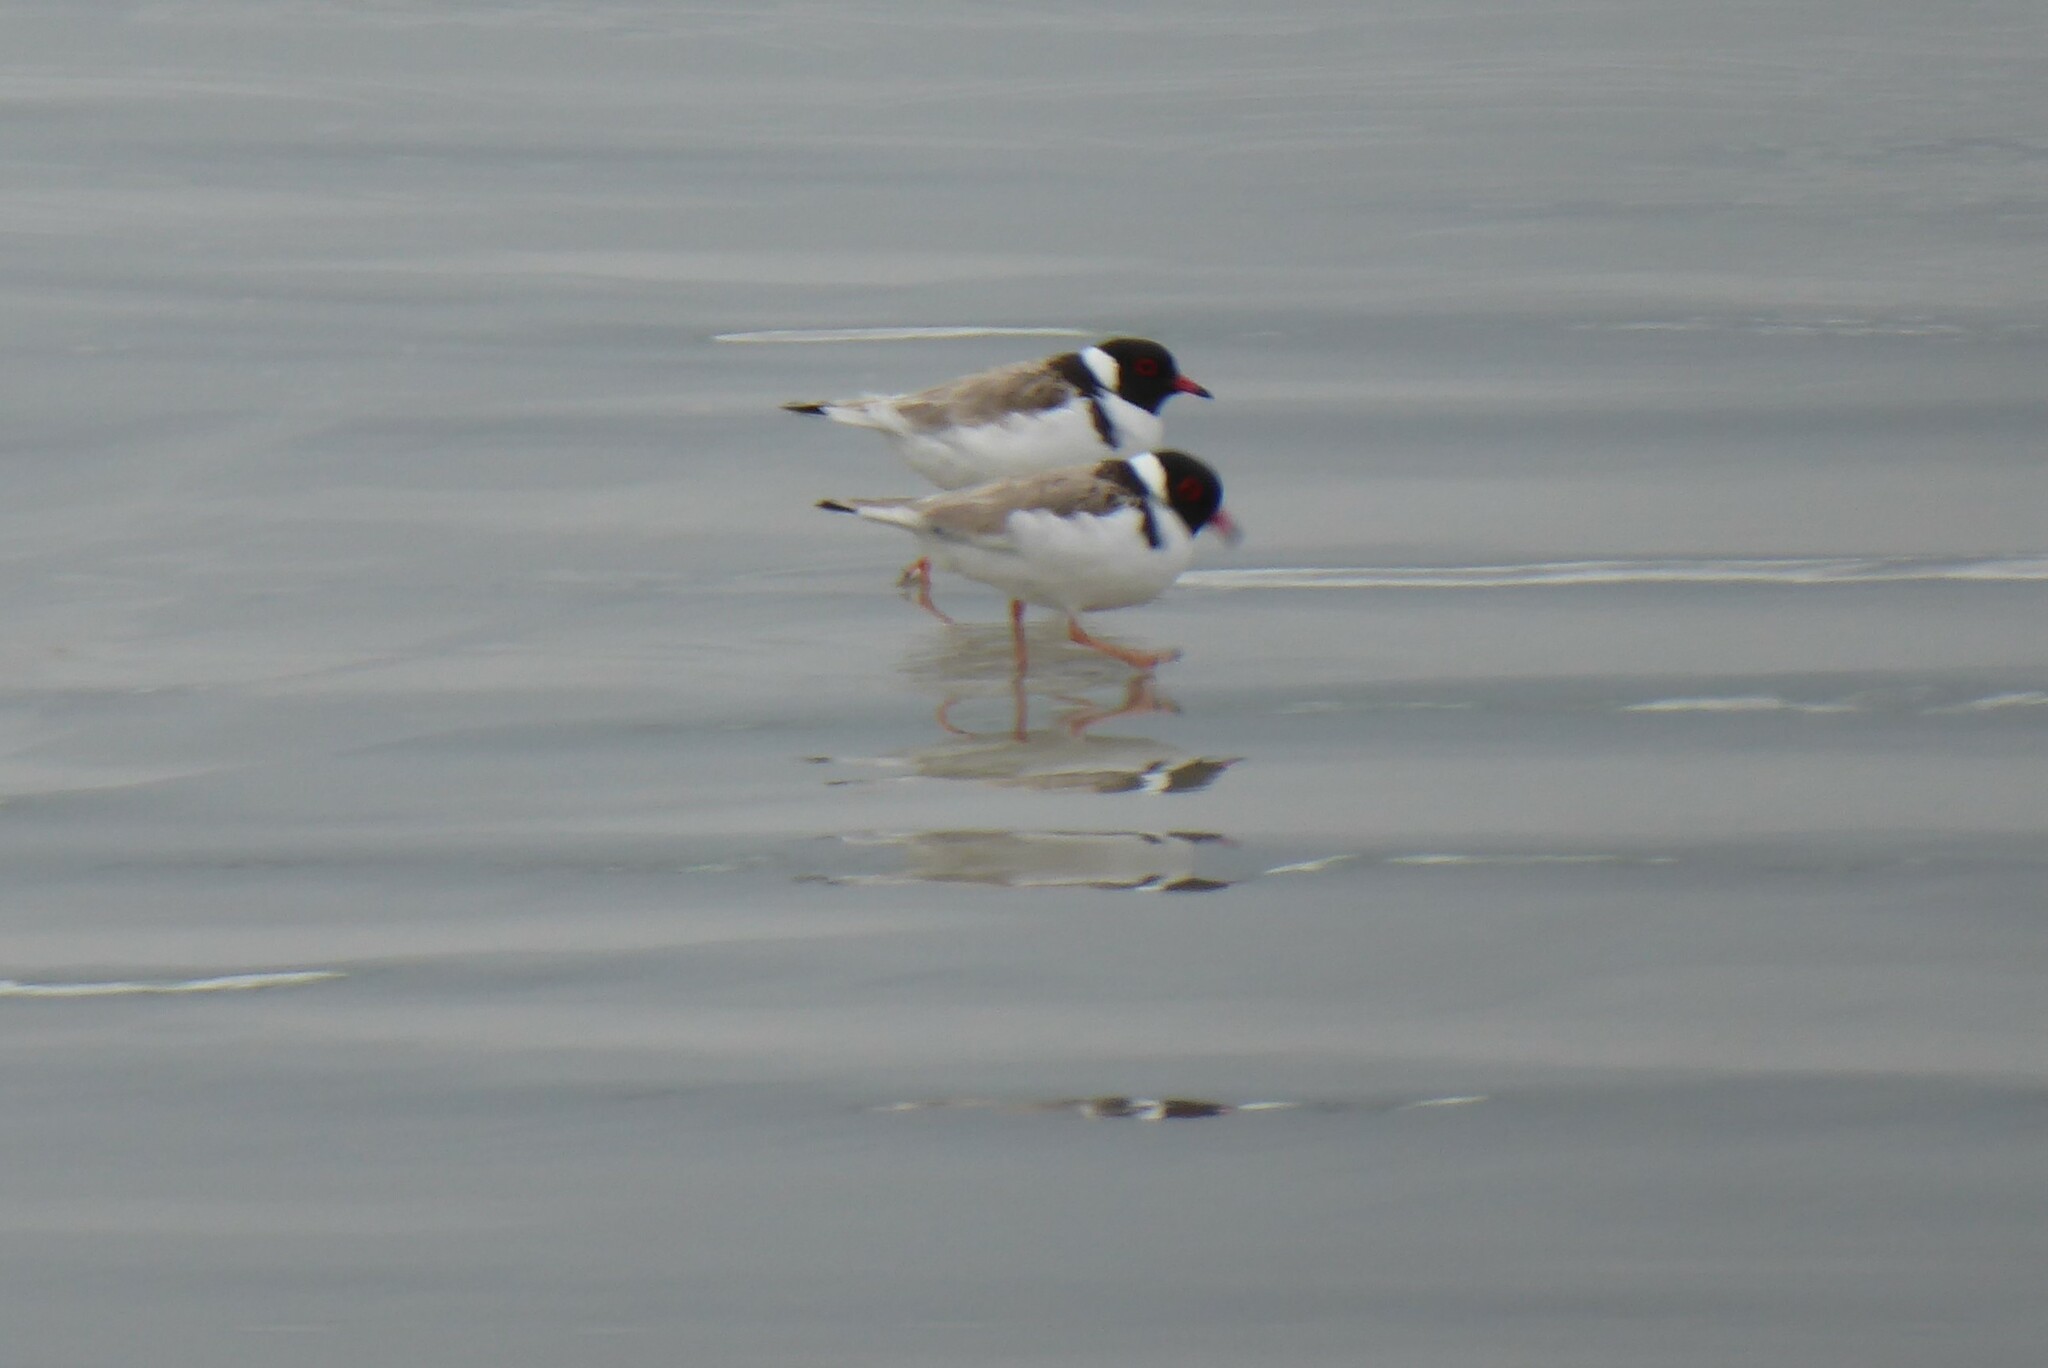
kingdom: Animalia
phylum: Chordata
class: Aves
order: Charadriiformes
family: Charadriidae
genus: Thinornis
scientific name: Thinornis cucullatus
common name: Hooded dotterel
